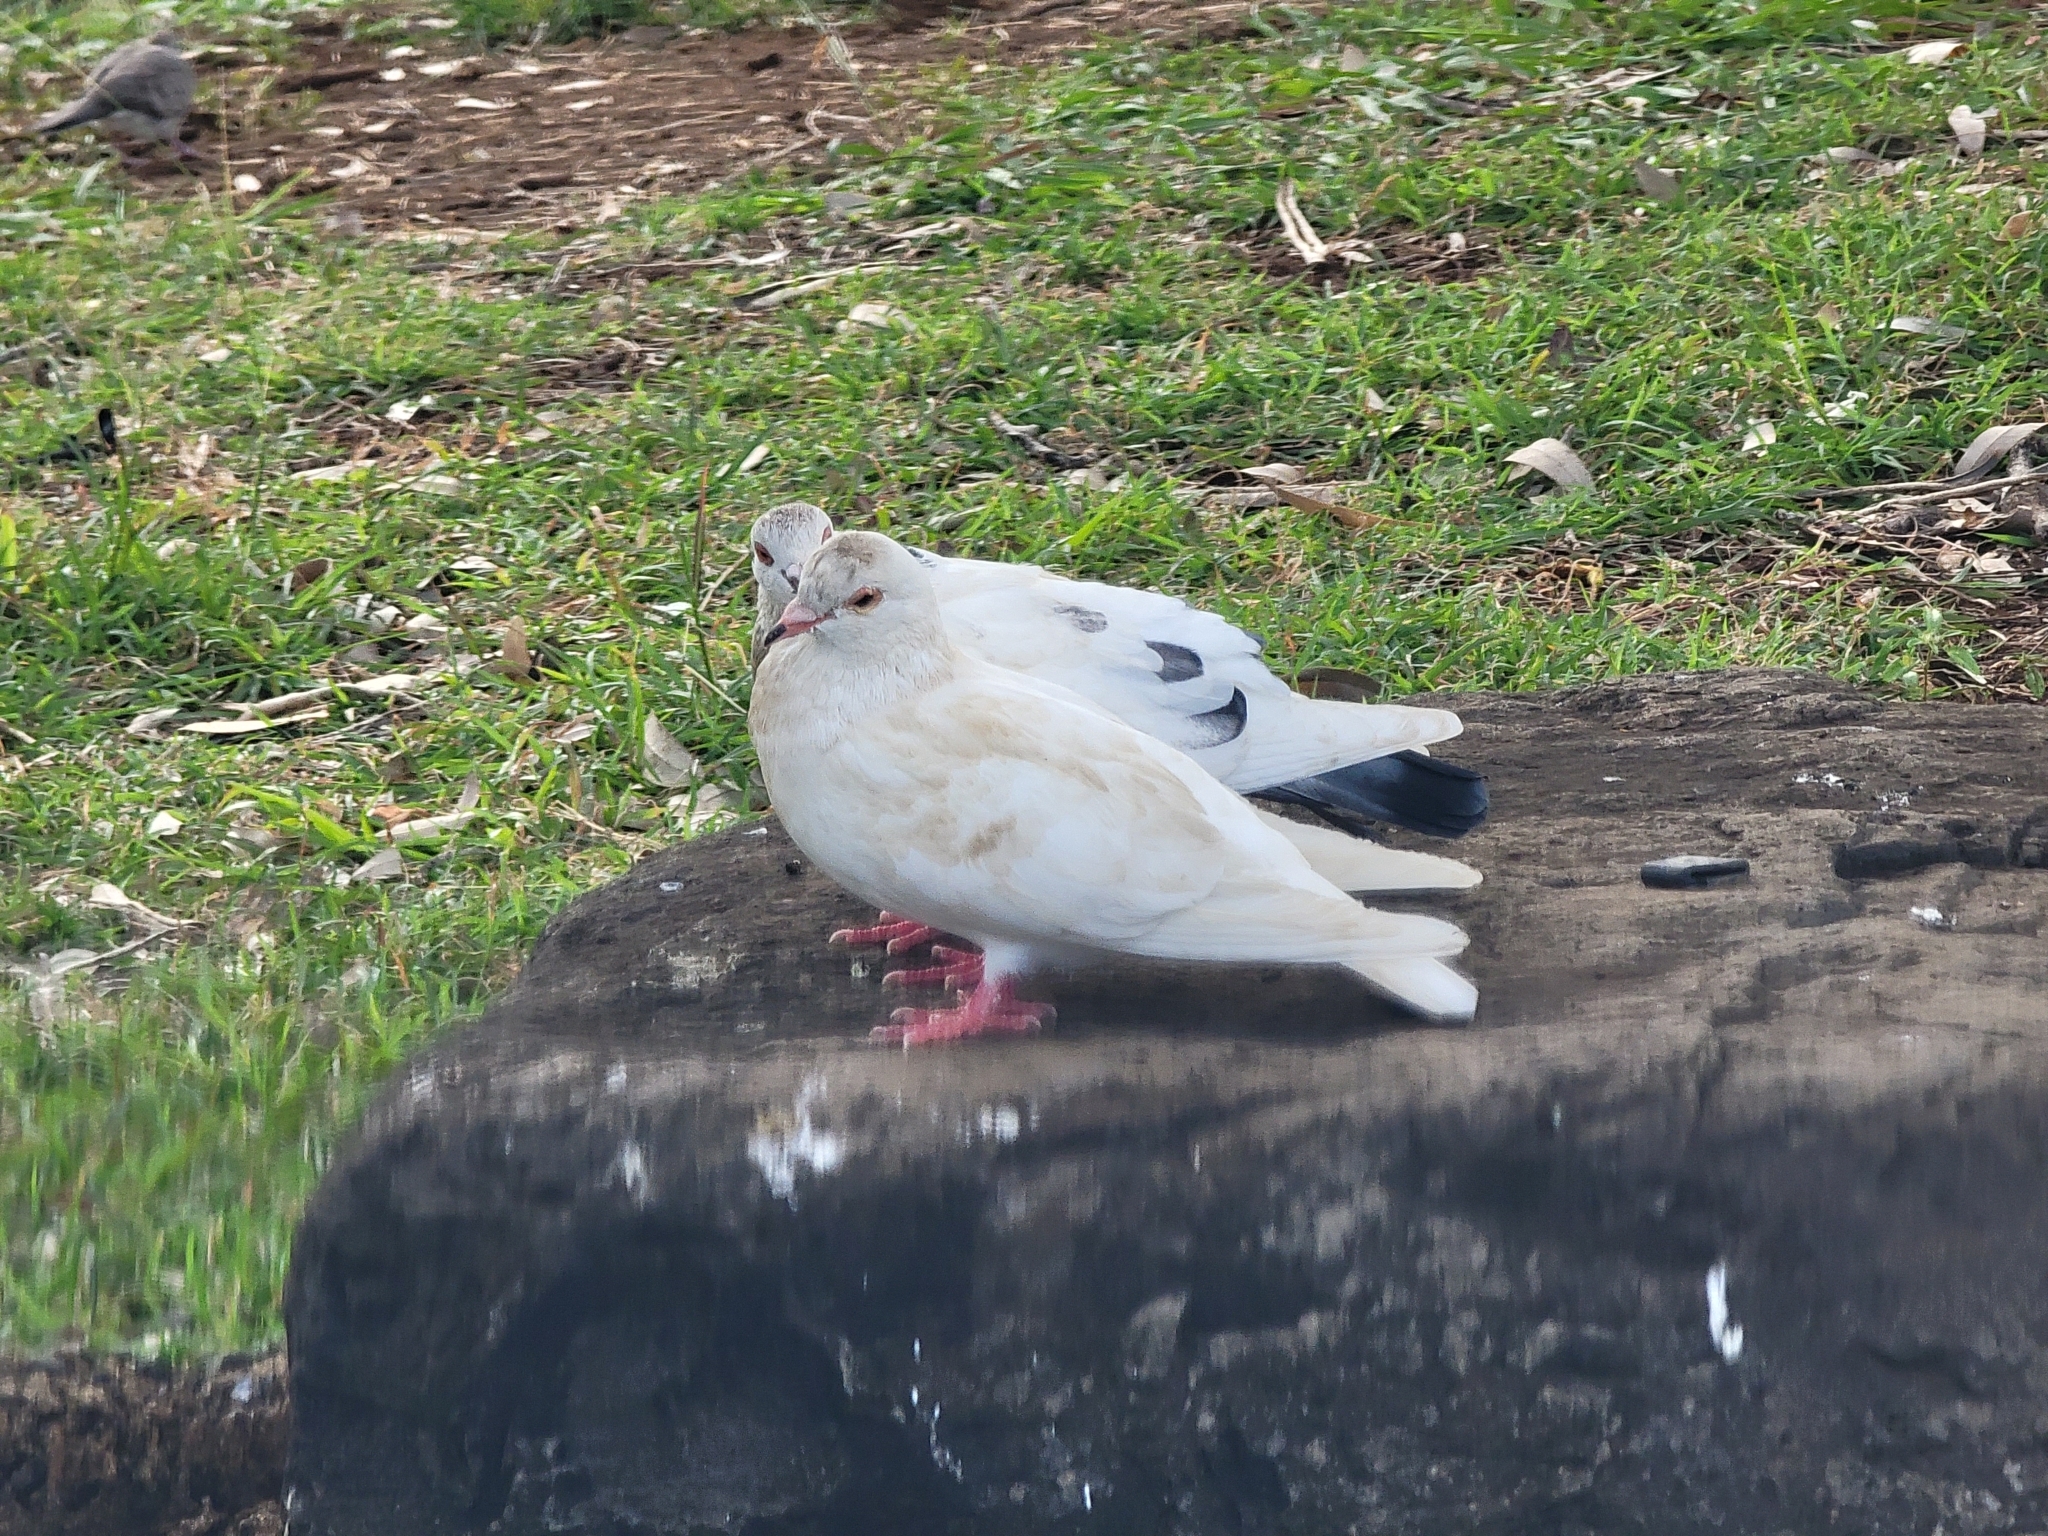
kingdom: Animalia
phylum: Chordata
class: Aves
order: Columbiformes
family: Columbidae
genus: Columba
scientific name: Columba livia
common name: Rock pigeon
